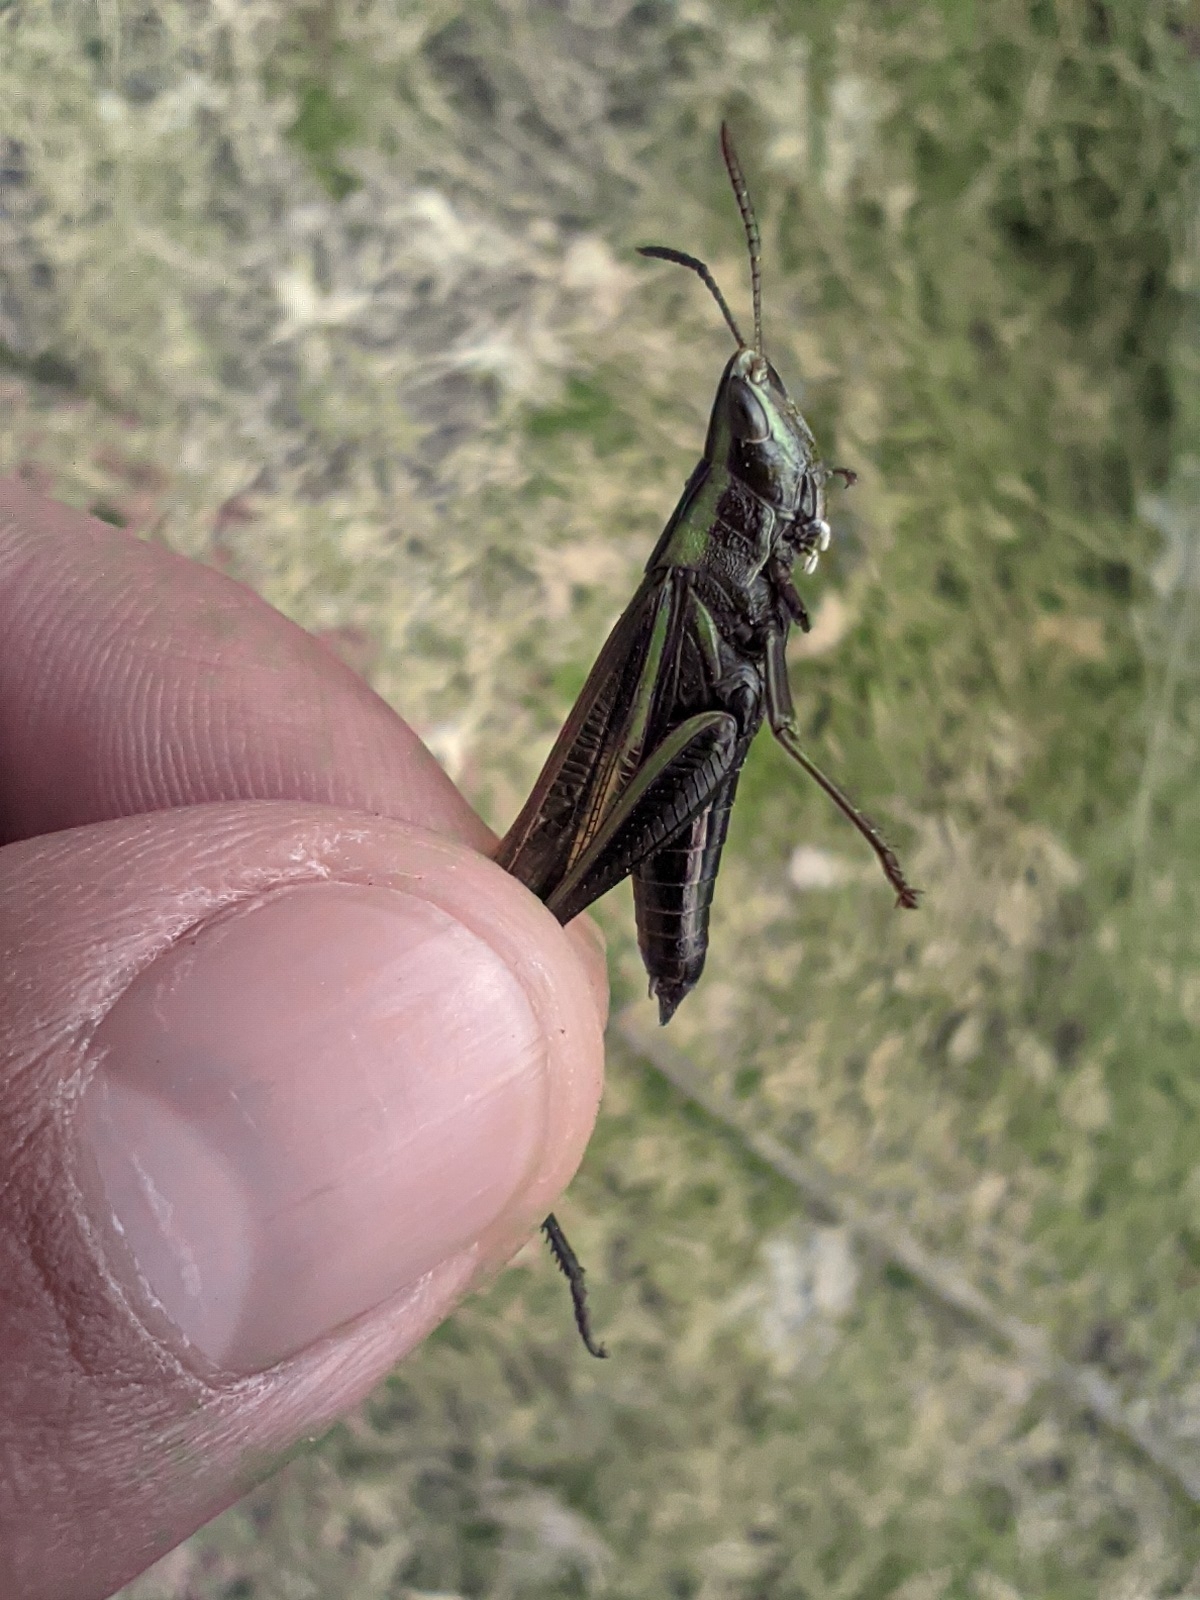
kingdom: Animalia
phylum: Arthropoda
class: Insecta
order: Orthoptera
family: Acrididae
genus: Syrbula
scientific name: Syrbula montezuma
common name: Montezuma's grasshopper
